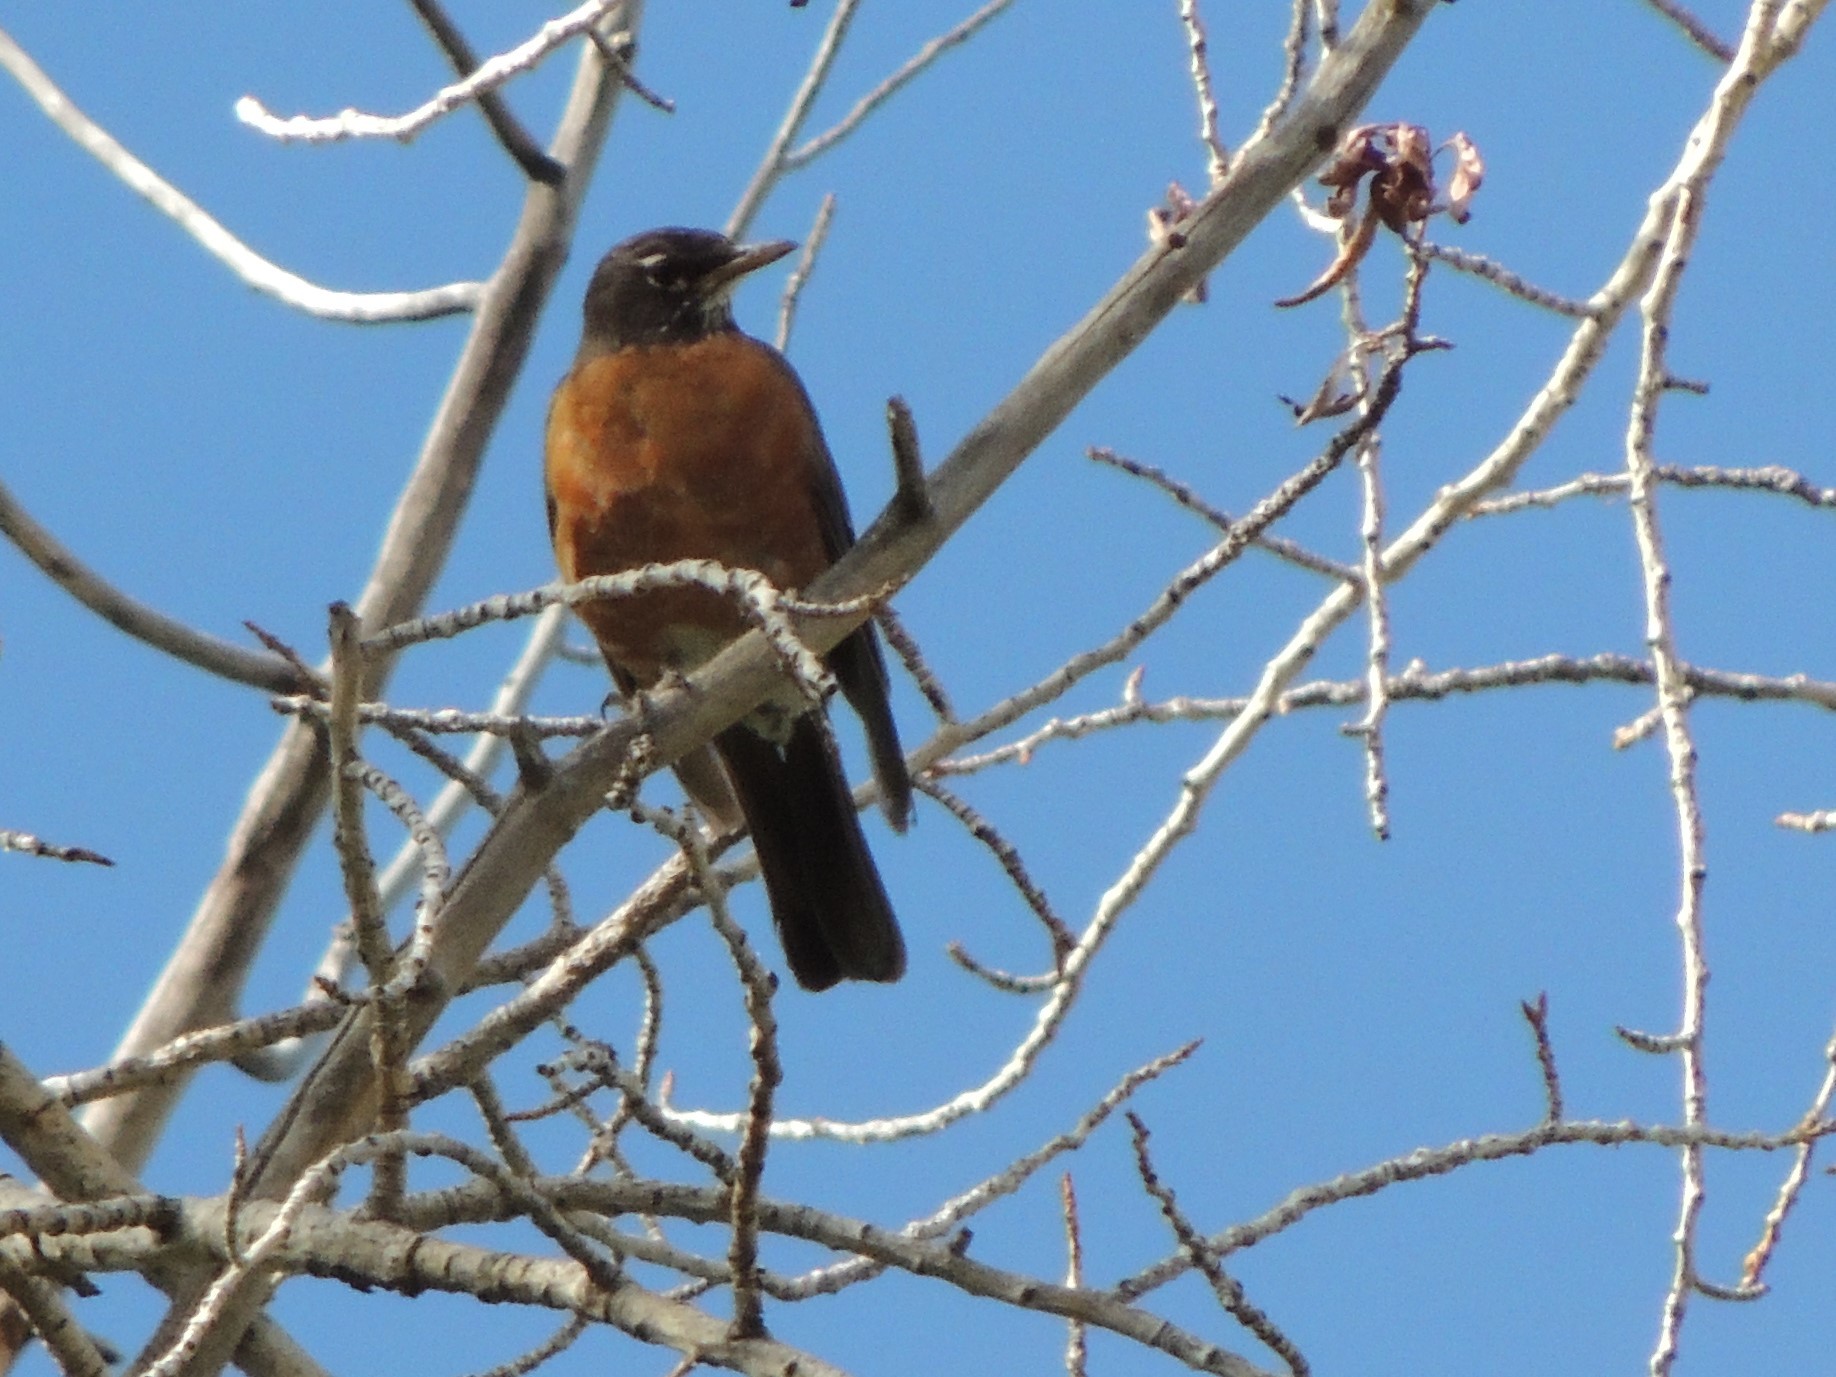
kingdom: Animalia
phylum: Chordata
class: Aves
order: Passeriformes
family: Turdidae
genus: Turdus
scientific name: Turdus migratorius
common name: American robin
